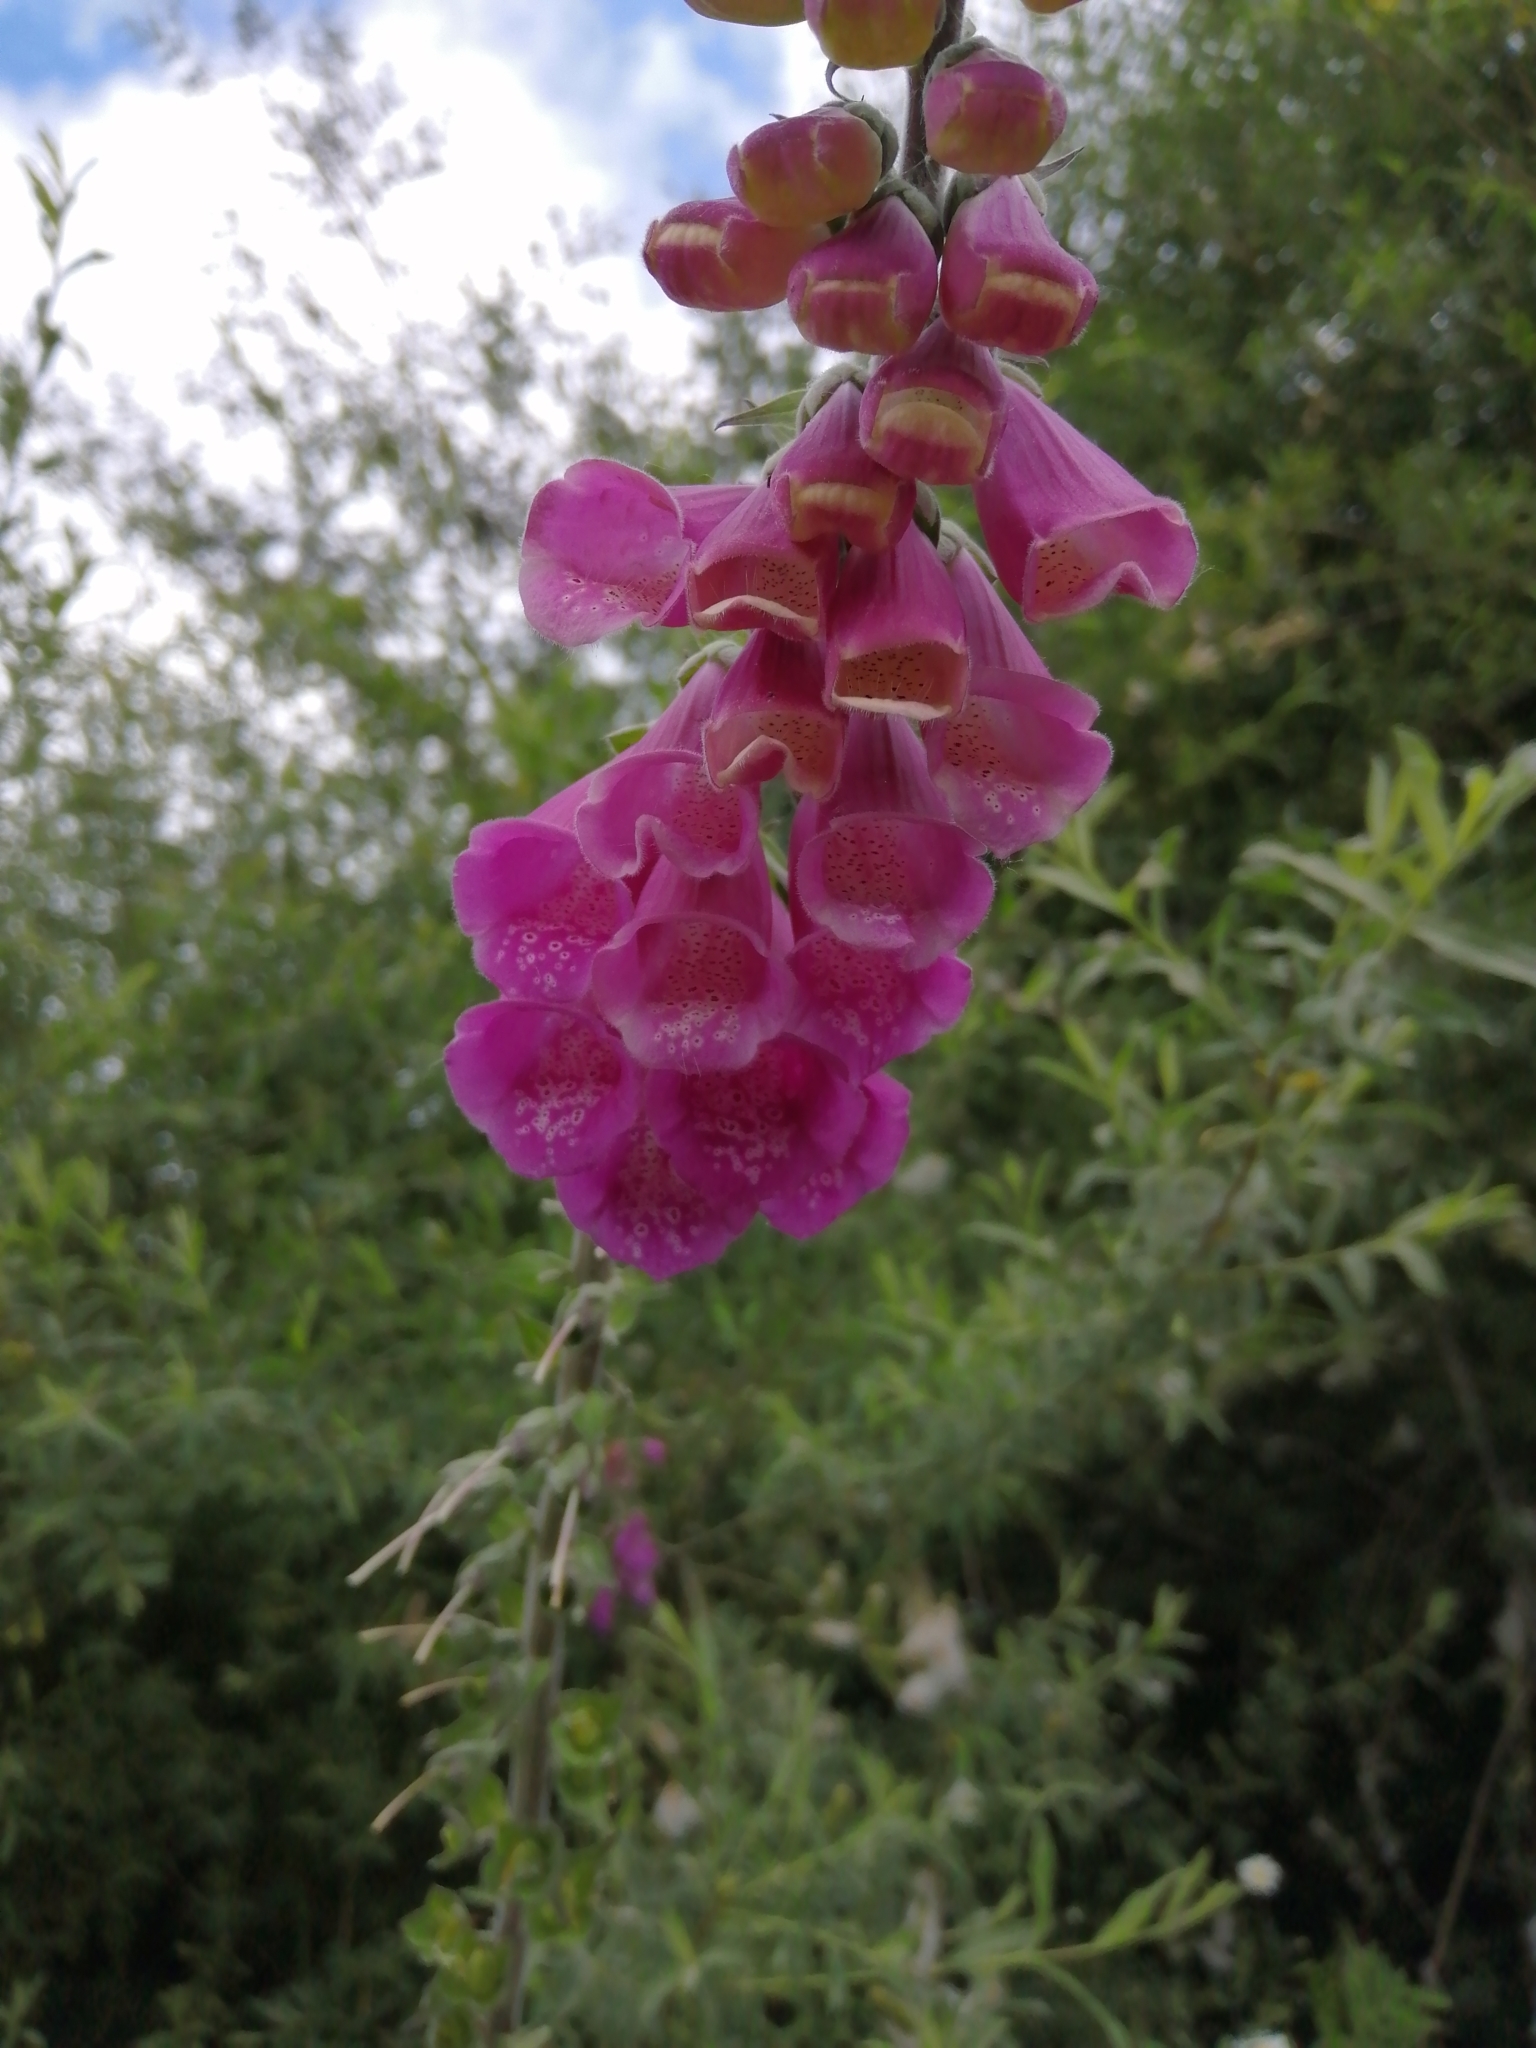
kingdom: Plantae
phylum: Tracheophyta
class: Magnoliopsida
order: Lamiales
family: Plantaginaceae
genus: Digitalis
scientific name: Digitalis purpurea
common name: Foxglove
